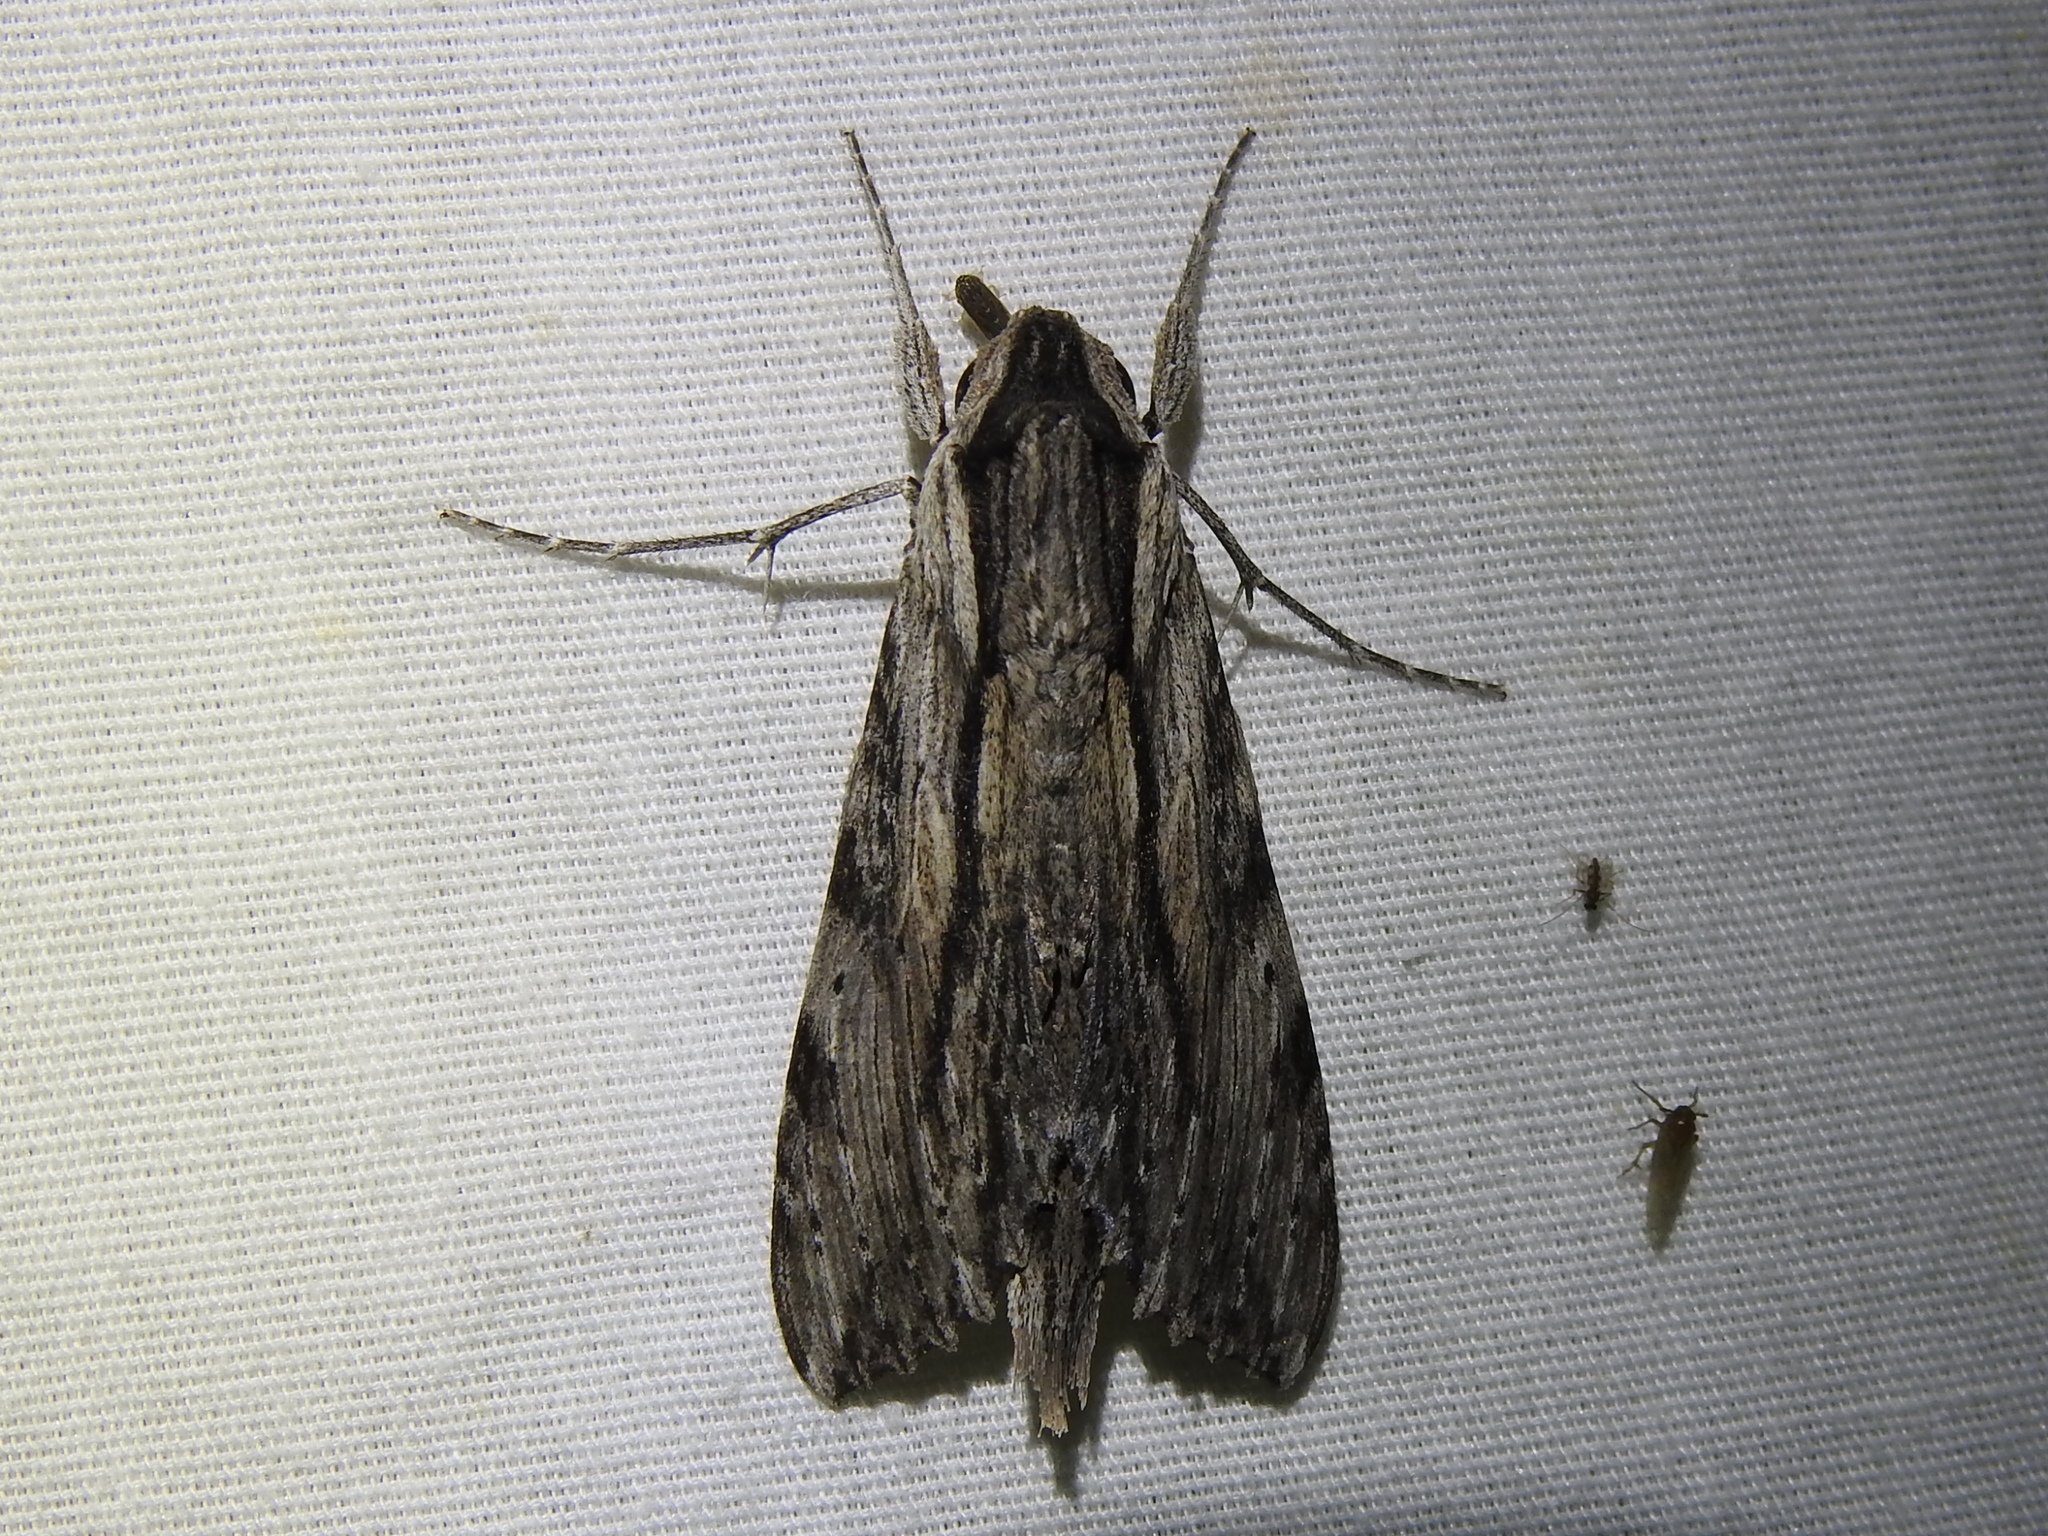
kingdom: Animalia
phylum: Arthropoda
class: Insecta
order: Lepidoptera
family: Sphingidae
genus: Erinnyis
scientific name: Erinnyis obscura
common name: Obscure sphinx
